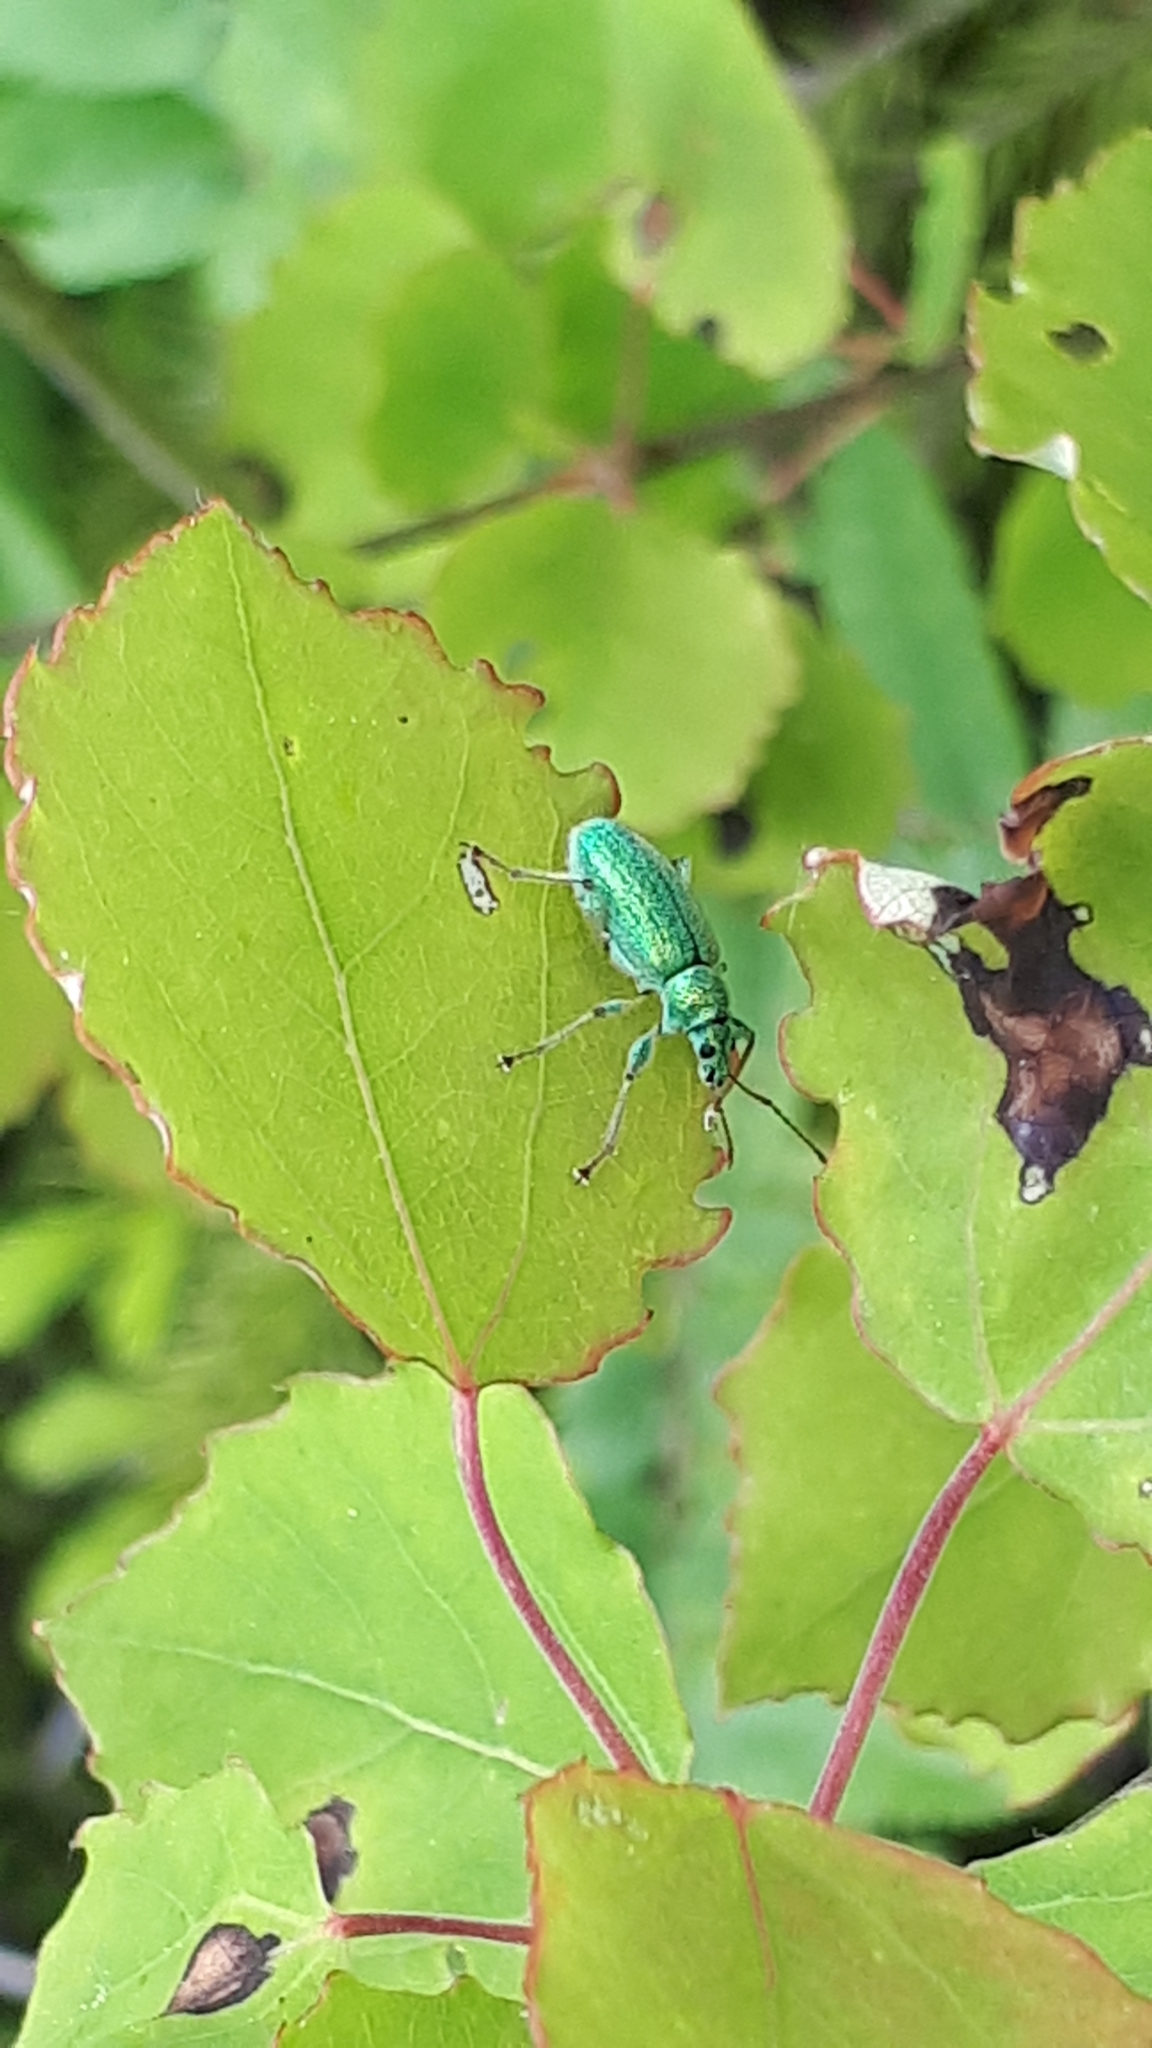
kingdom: Animalia
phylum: Arthropoda
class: Insecta
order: Coleoptera
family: Curculionidae
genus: Phyllobius
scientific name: Phyllobius arborator
